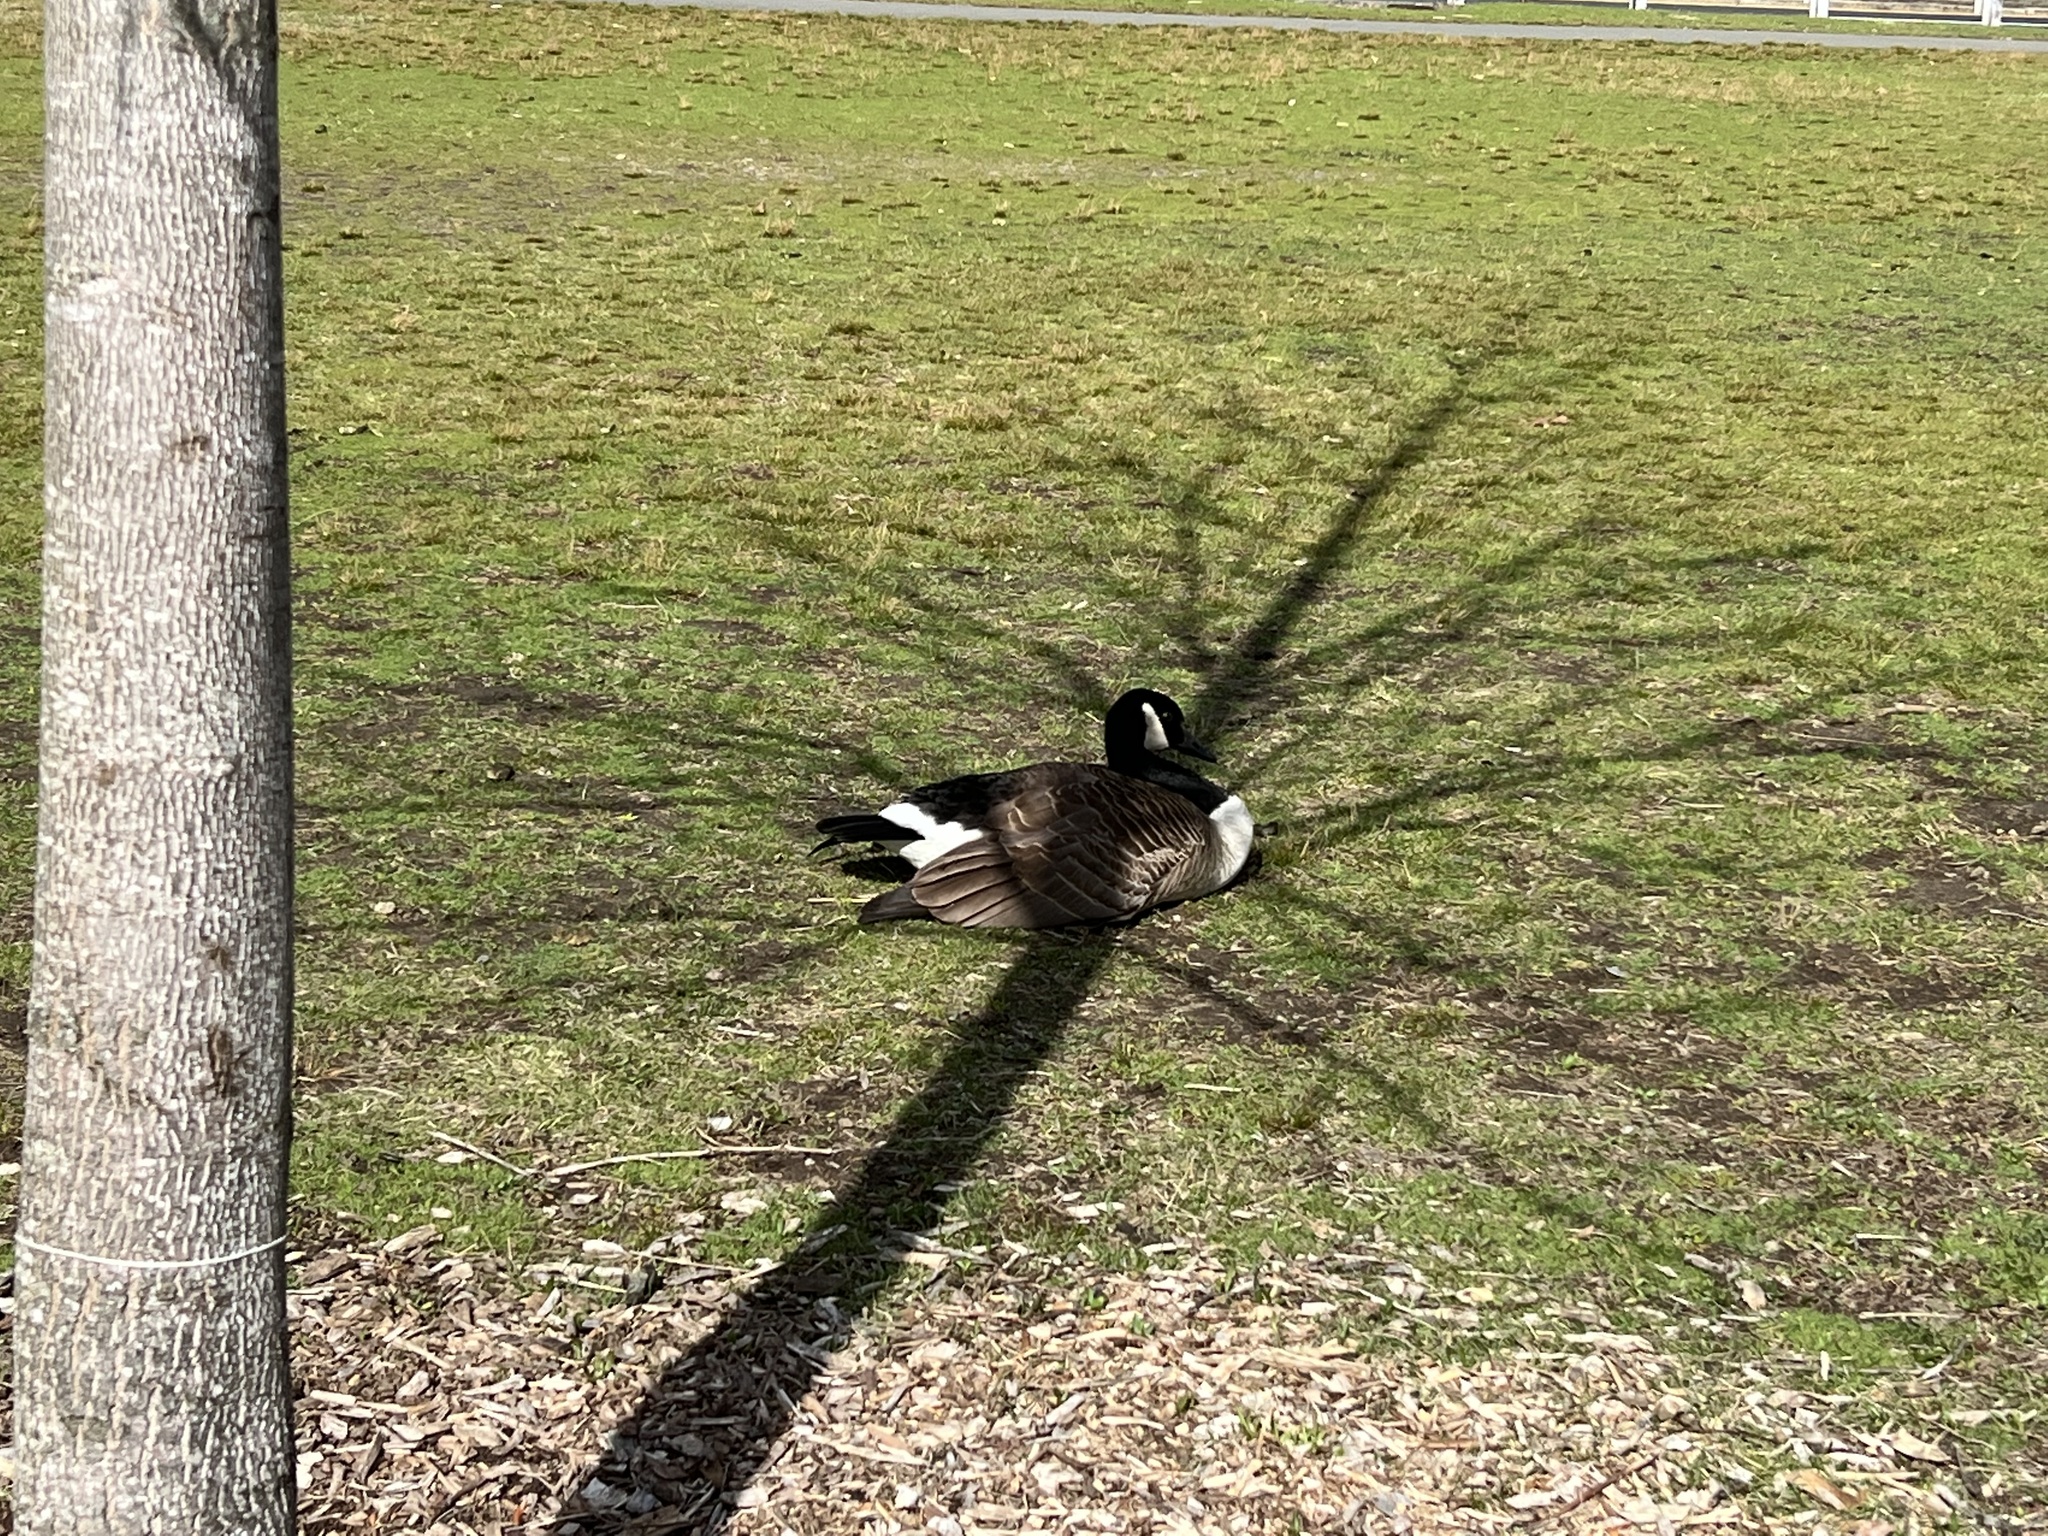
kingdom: Animalia
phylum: Chordata
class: Aves
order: Anseriformes
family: Anatidae
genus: Branta
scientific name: Branta canadensis
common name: Canada goose
